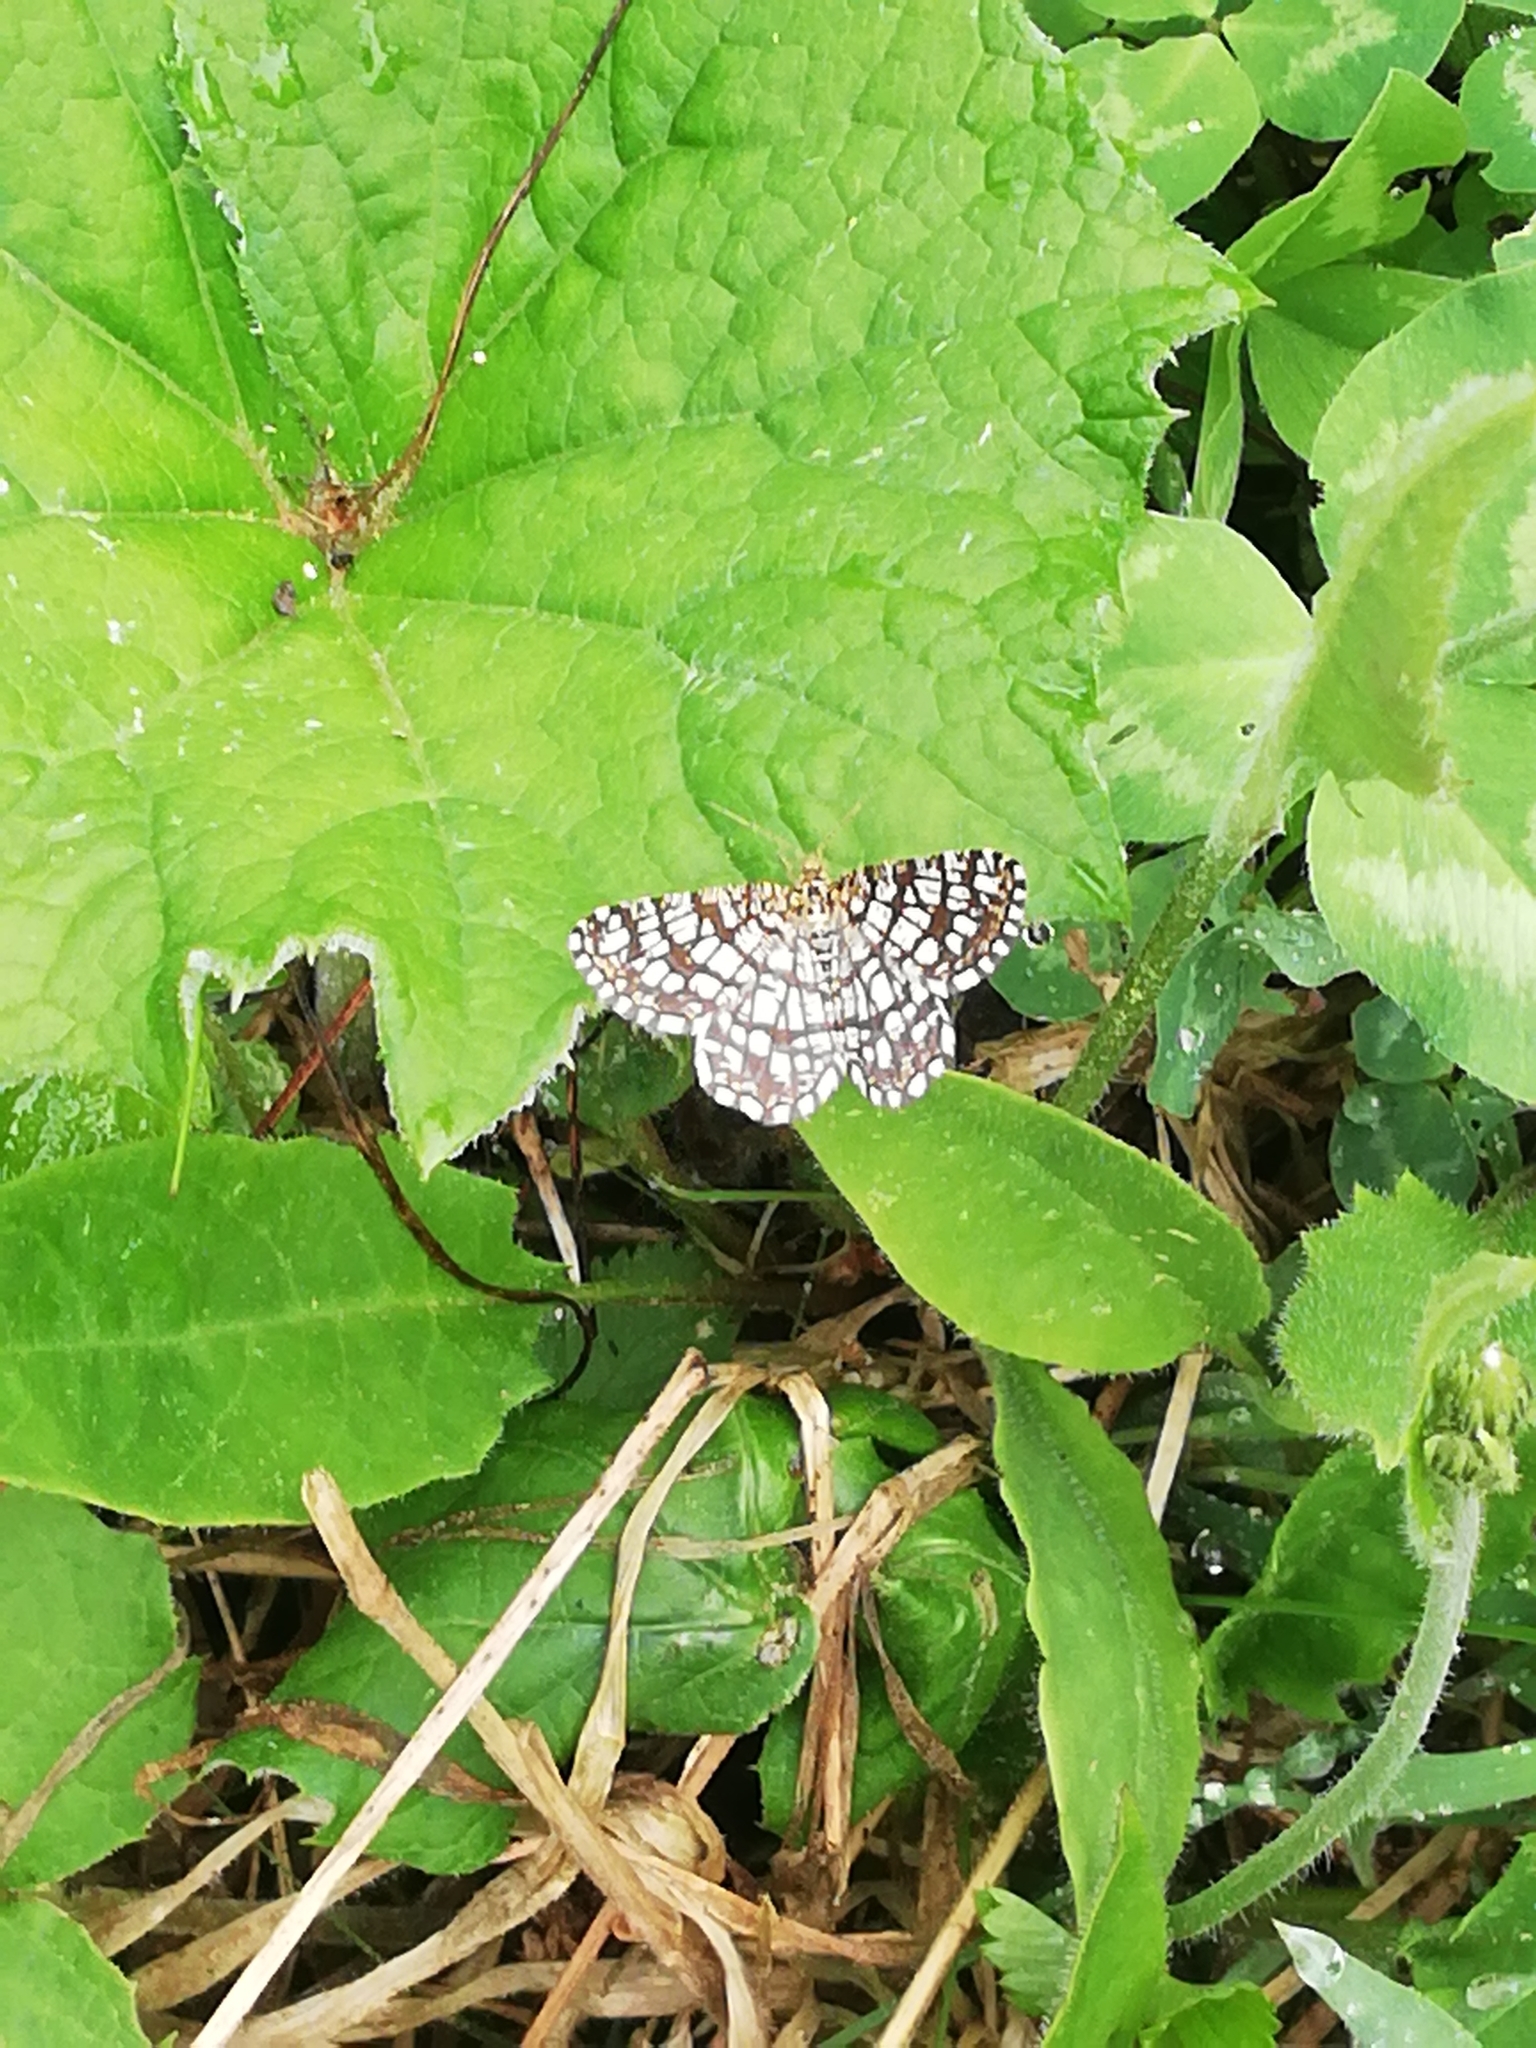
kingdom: Animalia
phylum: Arthropoda
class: Insecta
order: Lepidoptera
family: Geometridae
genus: Chiasmia
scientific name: Chiasmia clathrata
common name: Latticed heath
